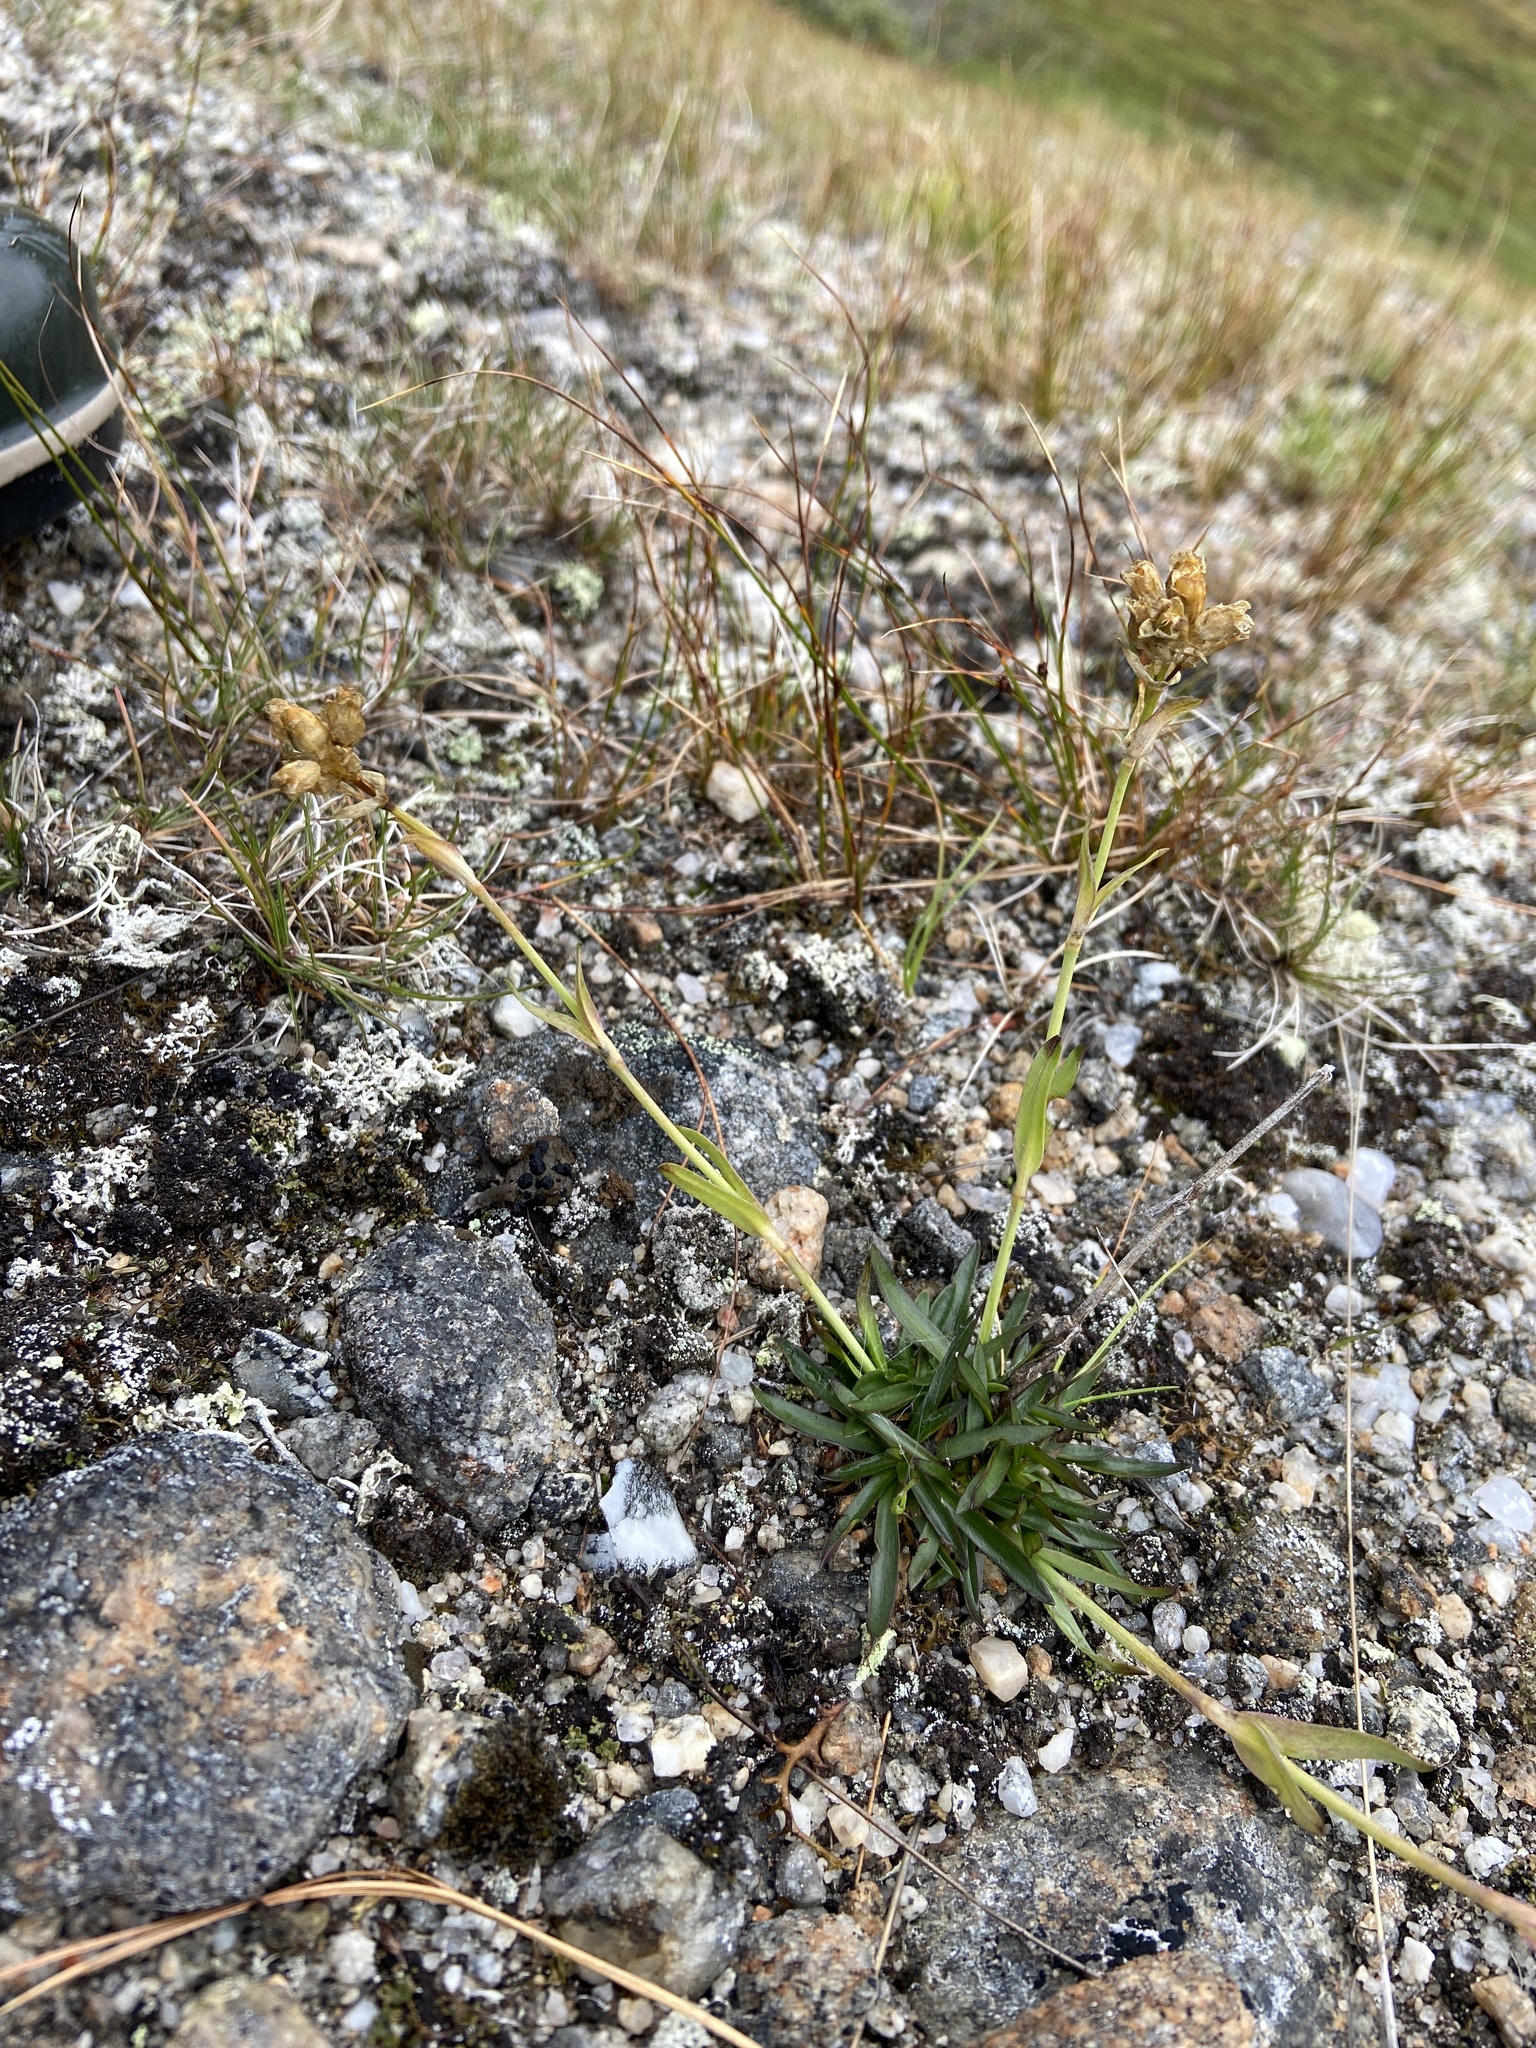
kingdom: Plantae
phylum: Tracheophyta
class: Magnoliopsida
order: Caryophyllales
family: Caryophyllaceae
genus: Viscaria
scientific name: Viscaria alpina
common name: Alpine campion
